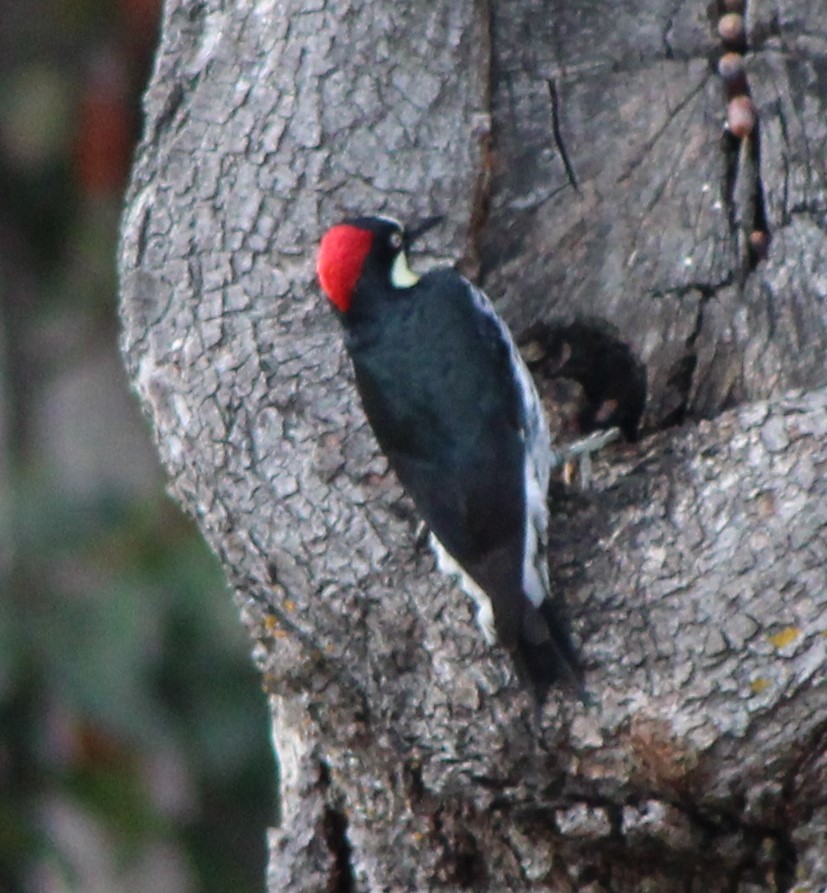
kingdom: Animalia
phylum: Chordata
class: Aves
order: Piciformes
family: Picidae
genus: Melanerpes
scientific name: Melanerpes formicivorus
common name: Acorn woodpecker
